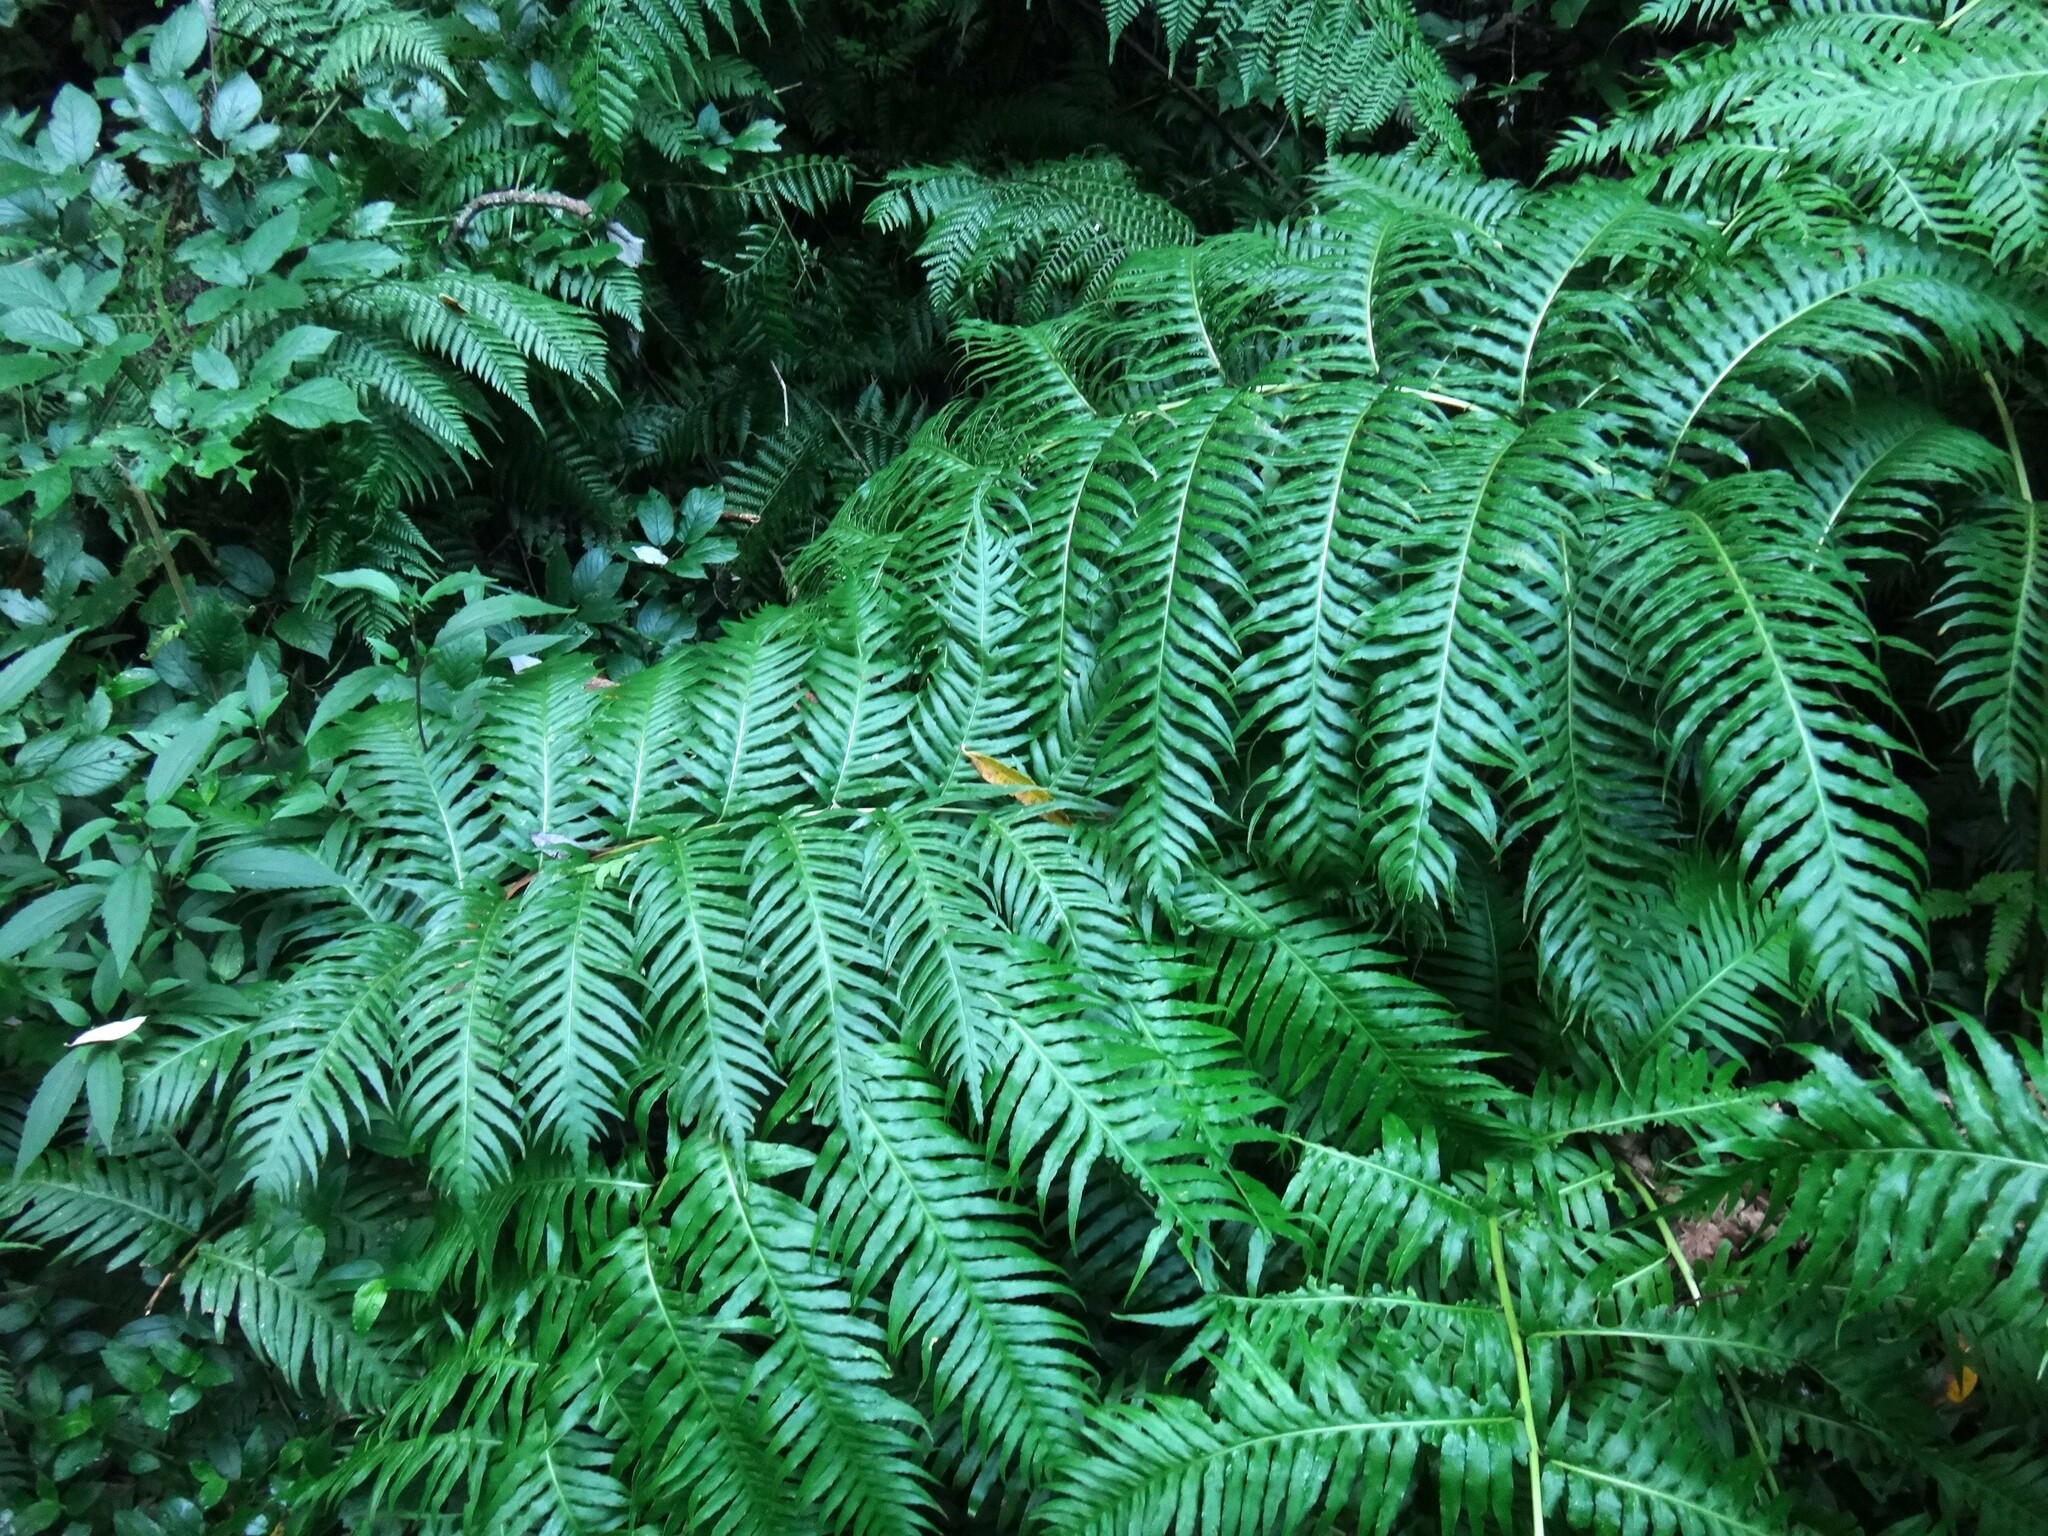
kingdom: Plantae
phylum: Tracheophyta
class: Polypodiopsida
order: Polypodiales
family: Blechnaceae
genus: Woodwardia
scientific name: Woodwardia radicans
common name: Rooting chainfern
